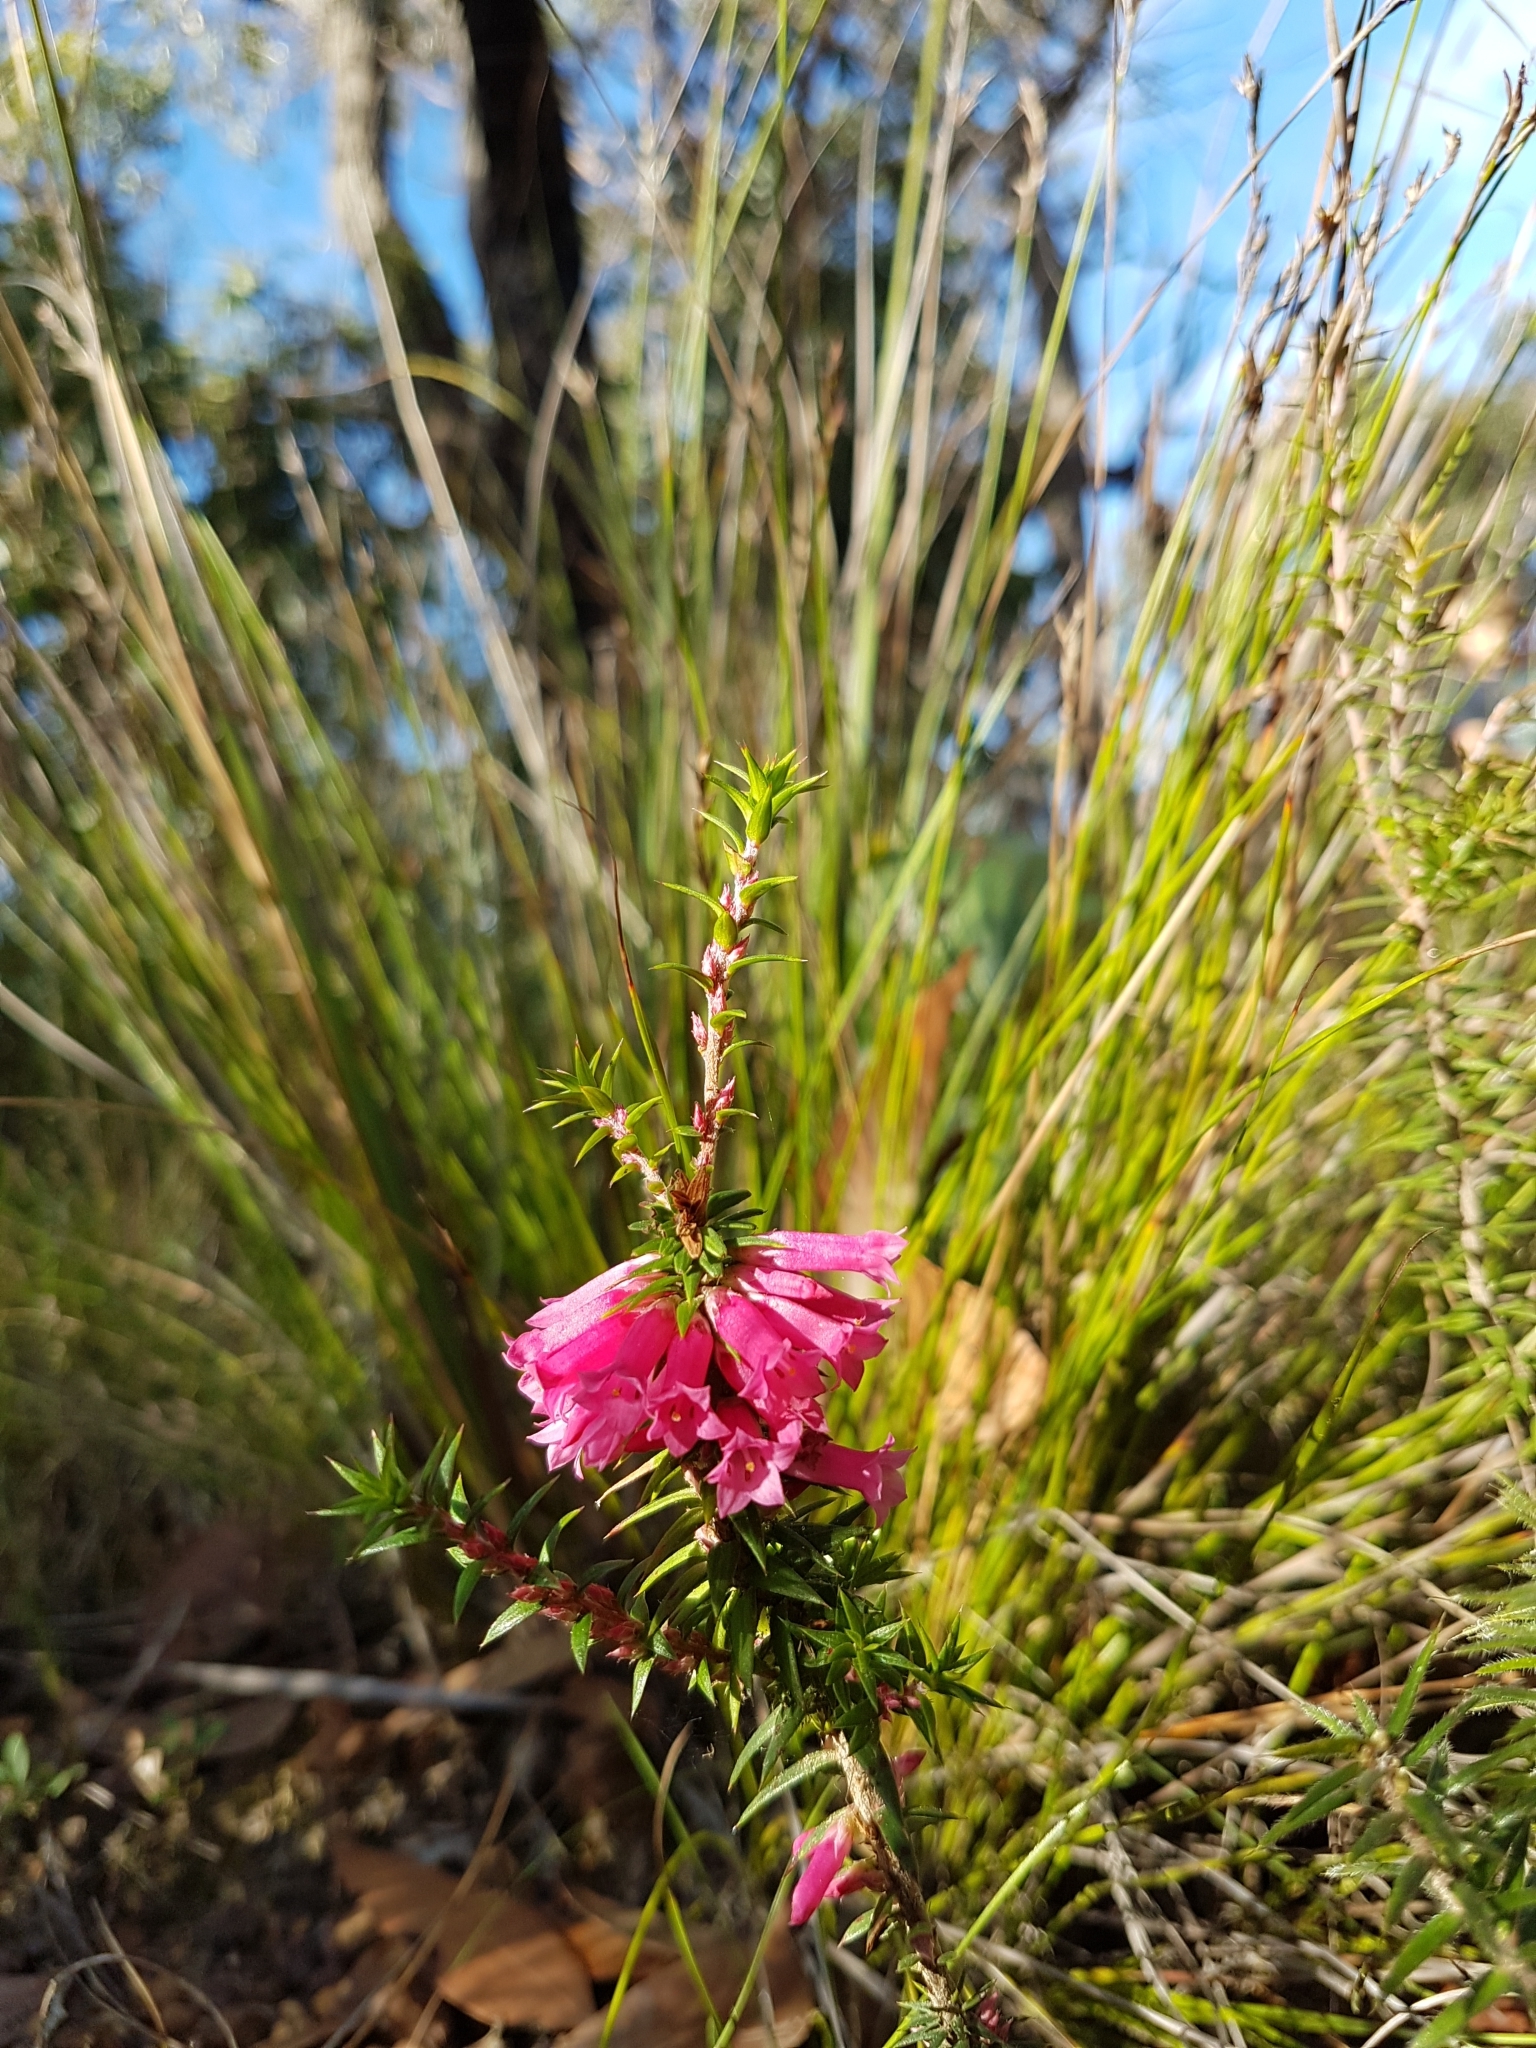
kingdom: Plantae
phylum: Tracheophyta
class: Magnoliopsida
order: Ericales
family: Ericaceae
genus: Epacris
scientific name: Epacris impressa
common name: Common-heath
